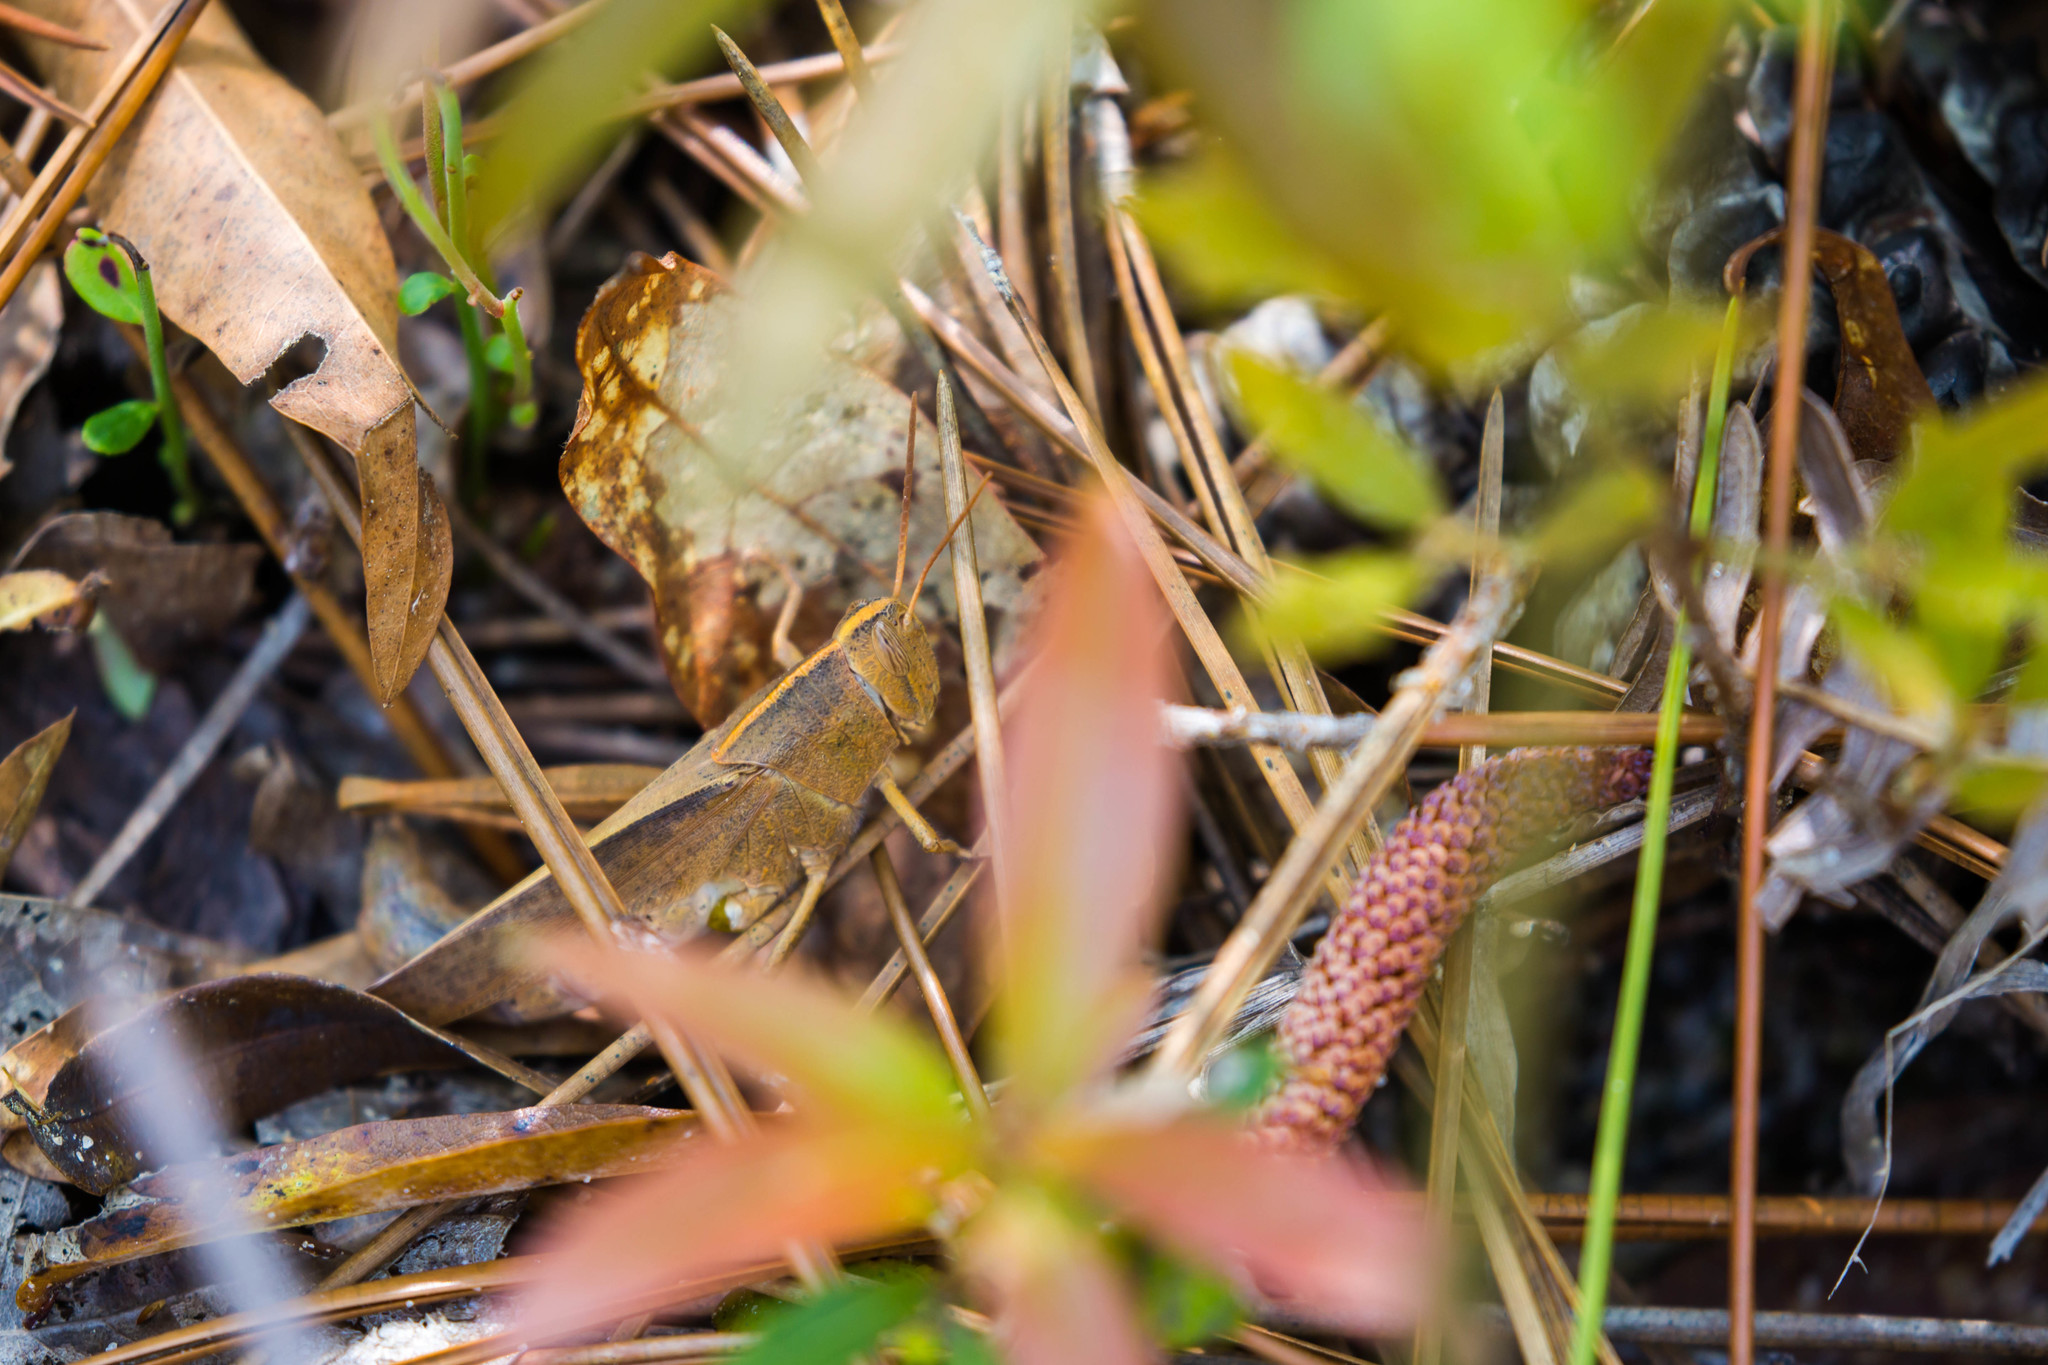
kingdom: Animalia
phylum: Arthropoda
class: Insecta
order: Orthoptera
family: Acrididae
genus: Schistocerca
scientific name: Schistocerca damnifica
